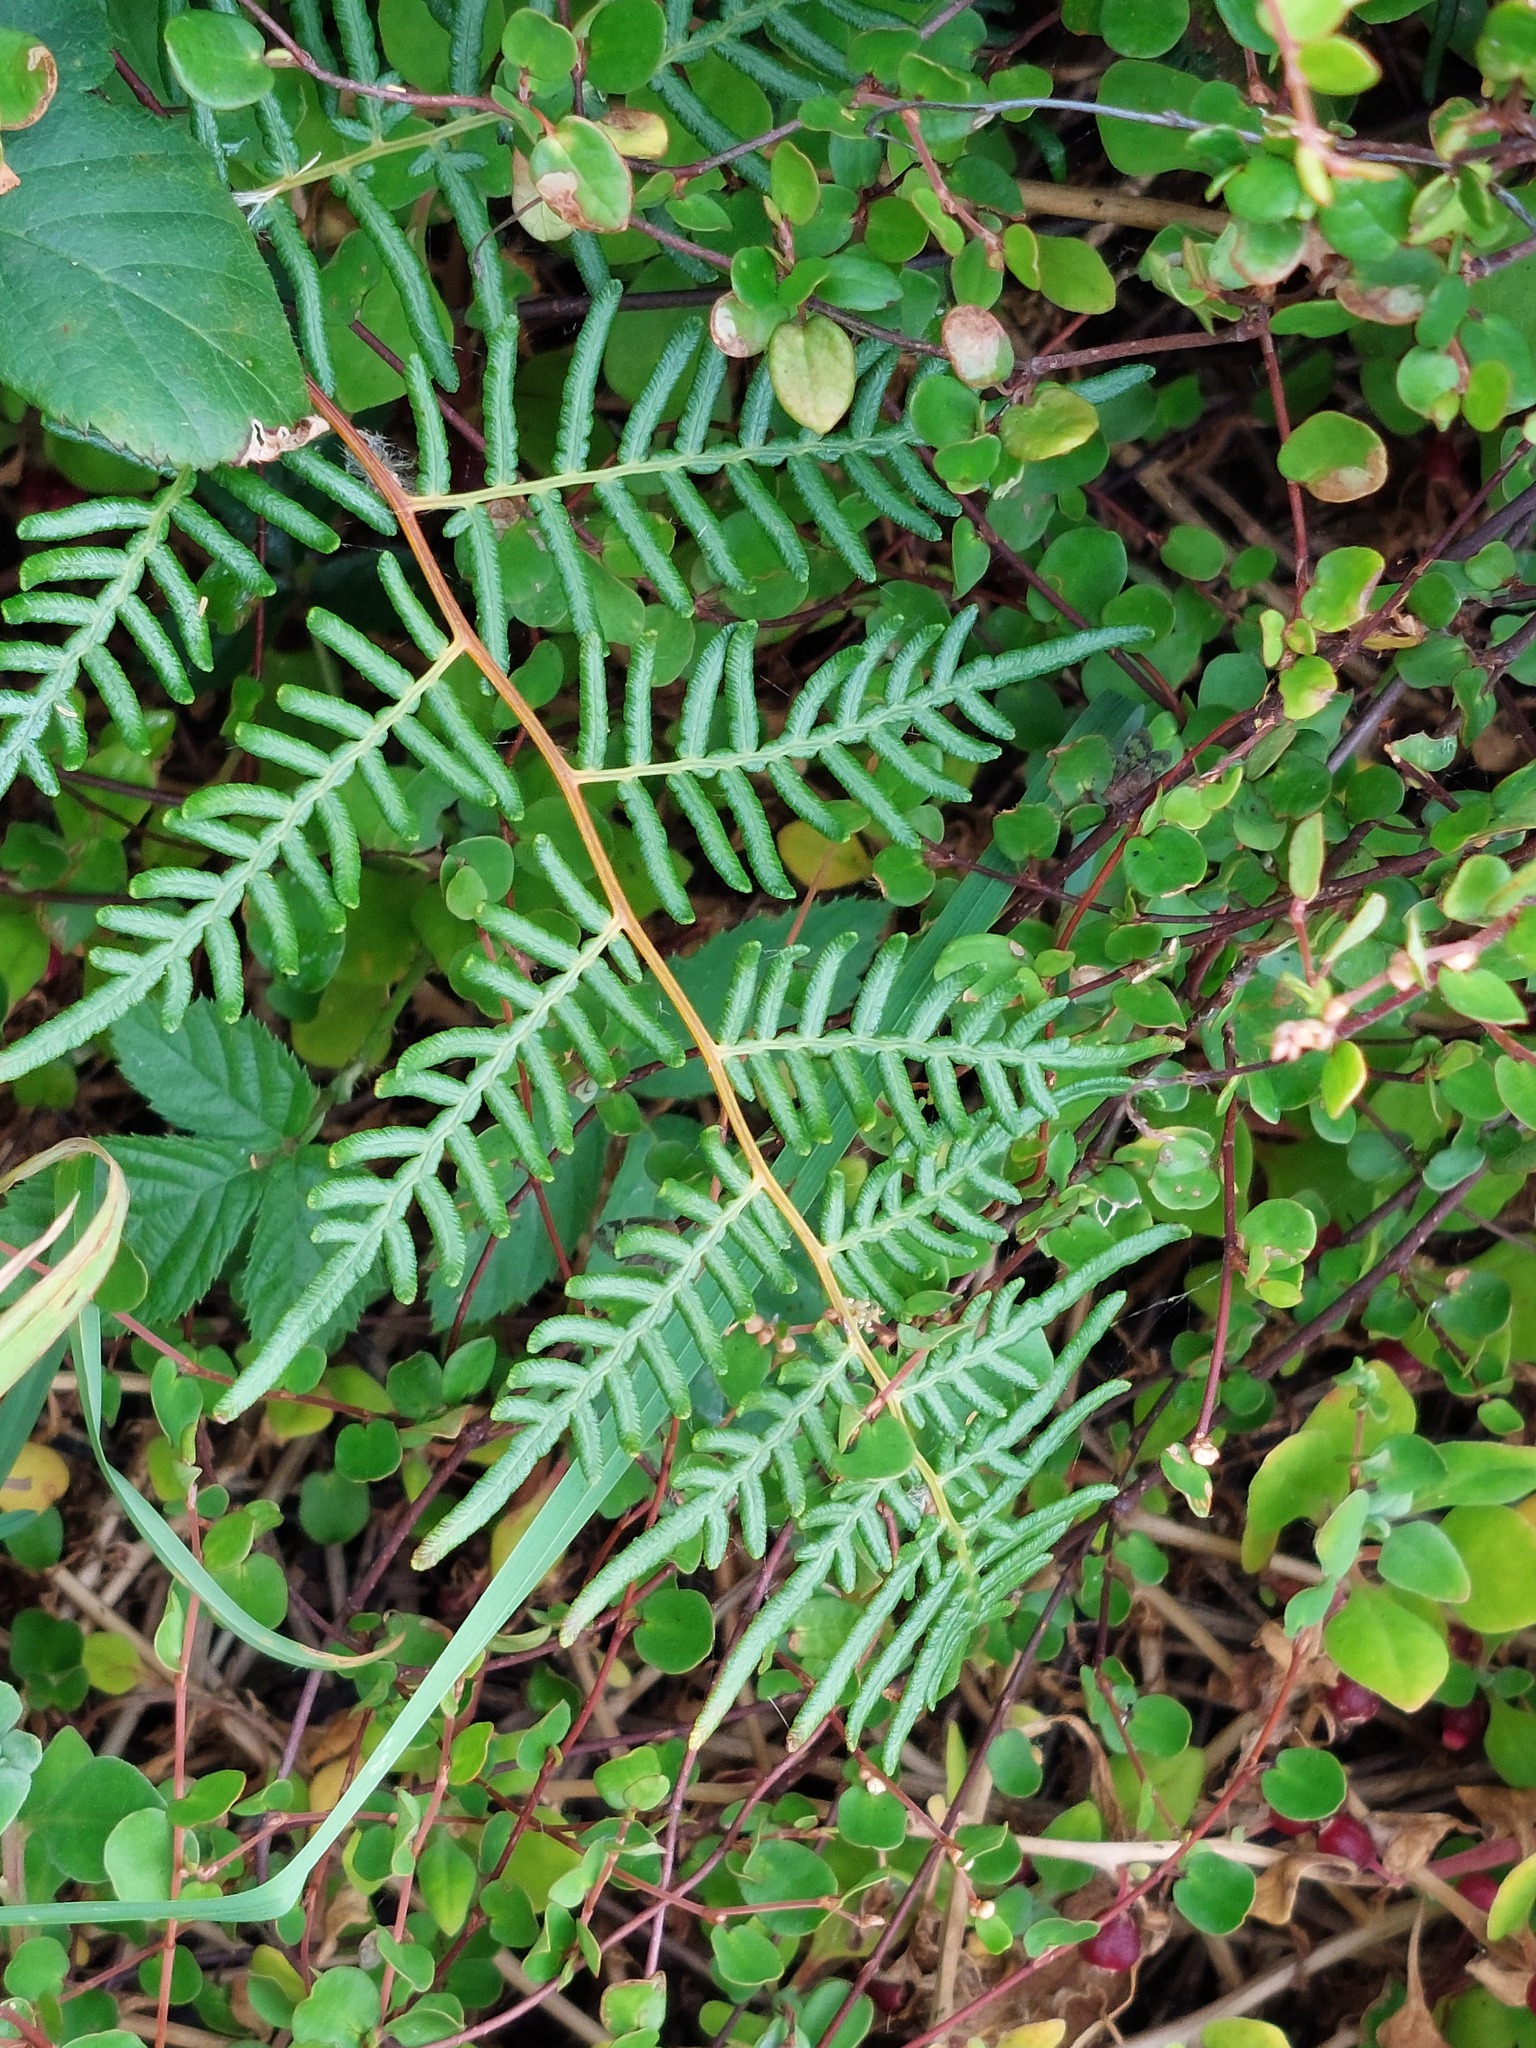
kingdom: Plantae
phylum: Tracheophyta
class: Polypodiopsida
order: Polypodiales
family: Dennstaedtiaceae
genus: Pteridium
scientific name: Pteridium esculentum
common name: Bracken fern
